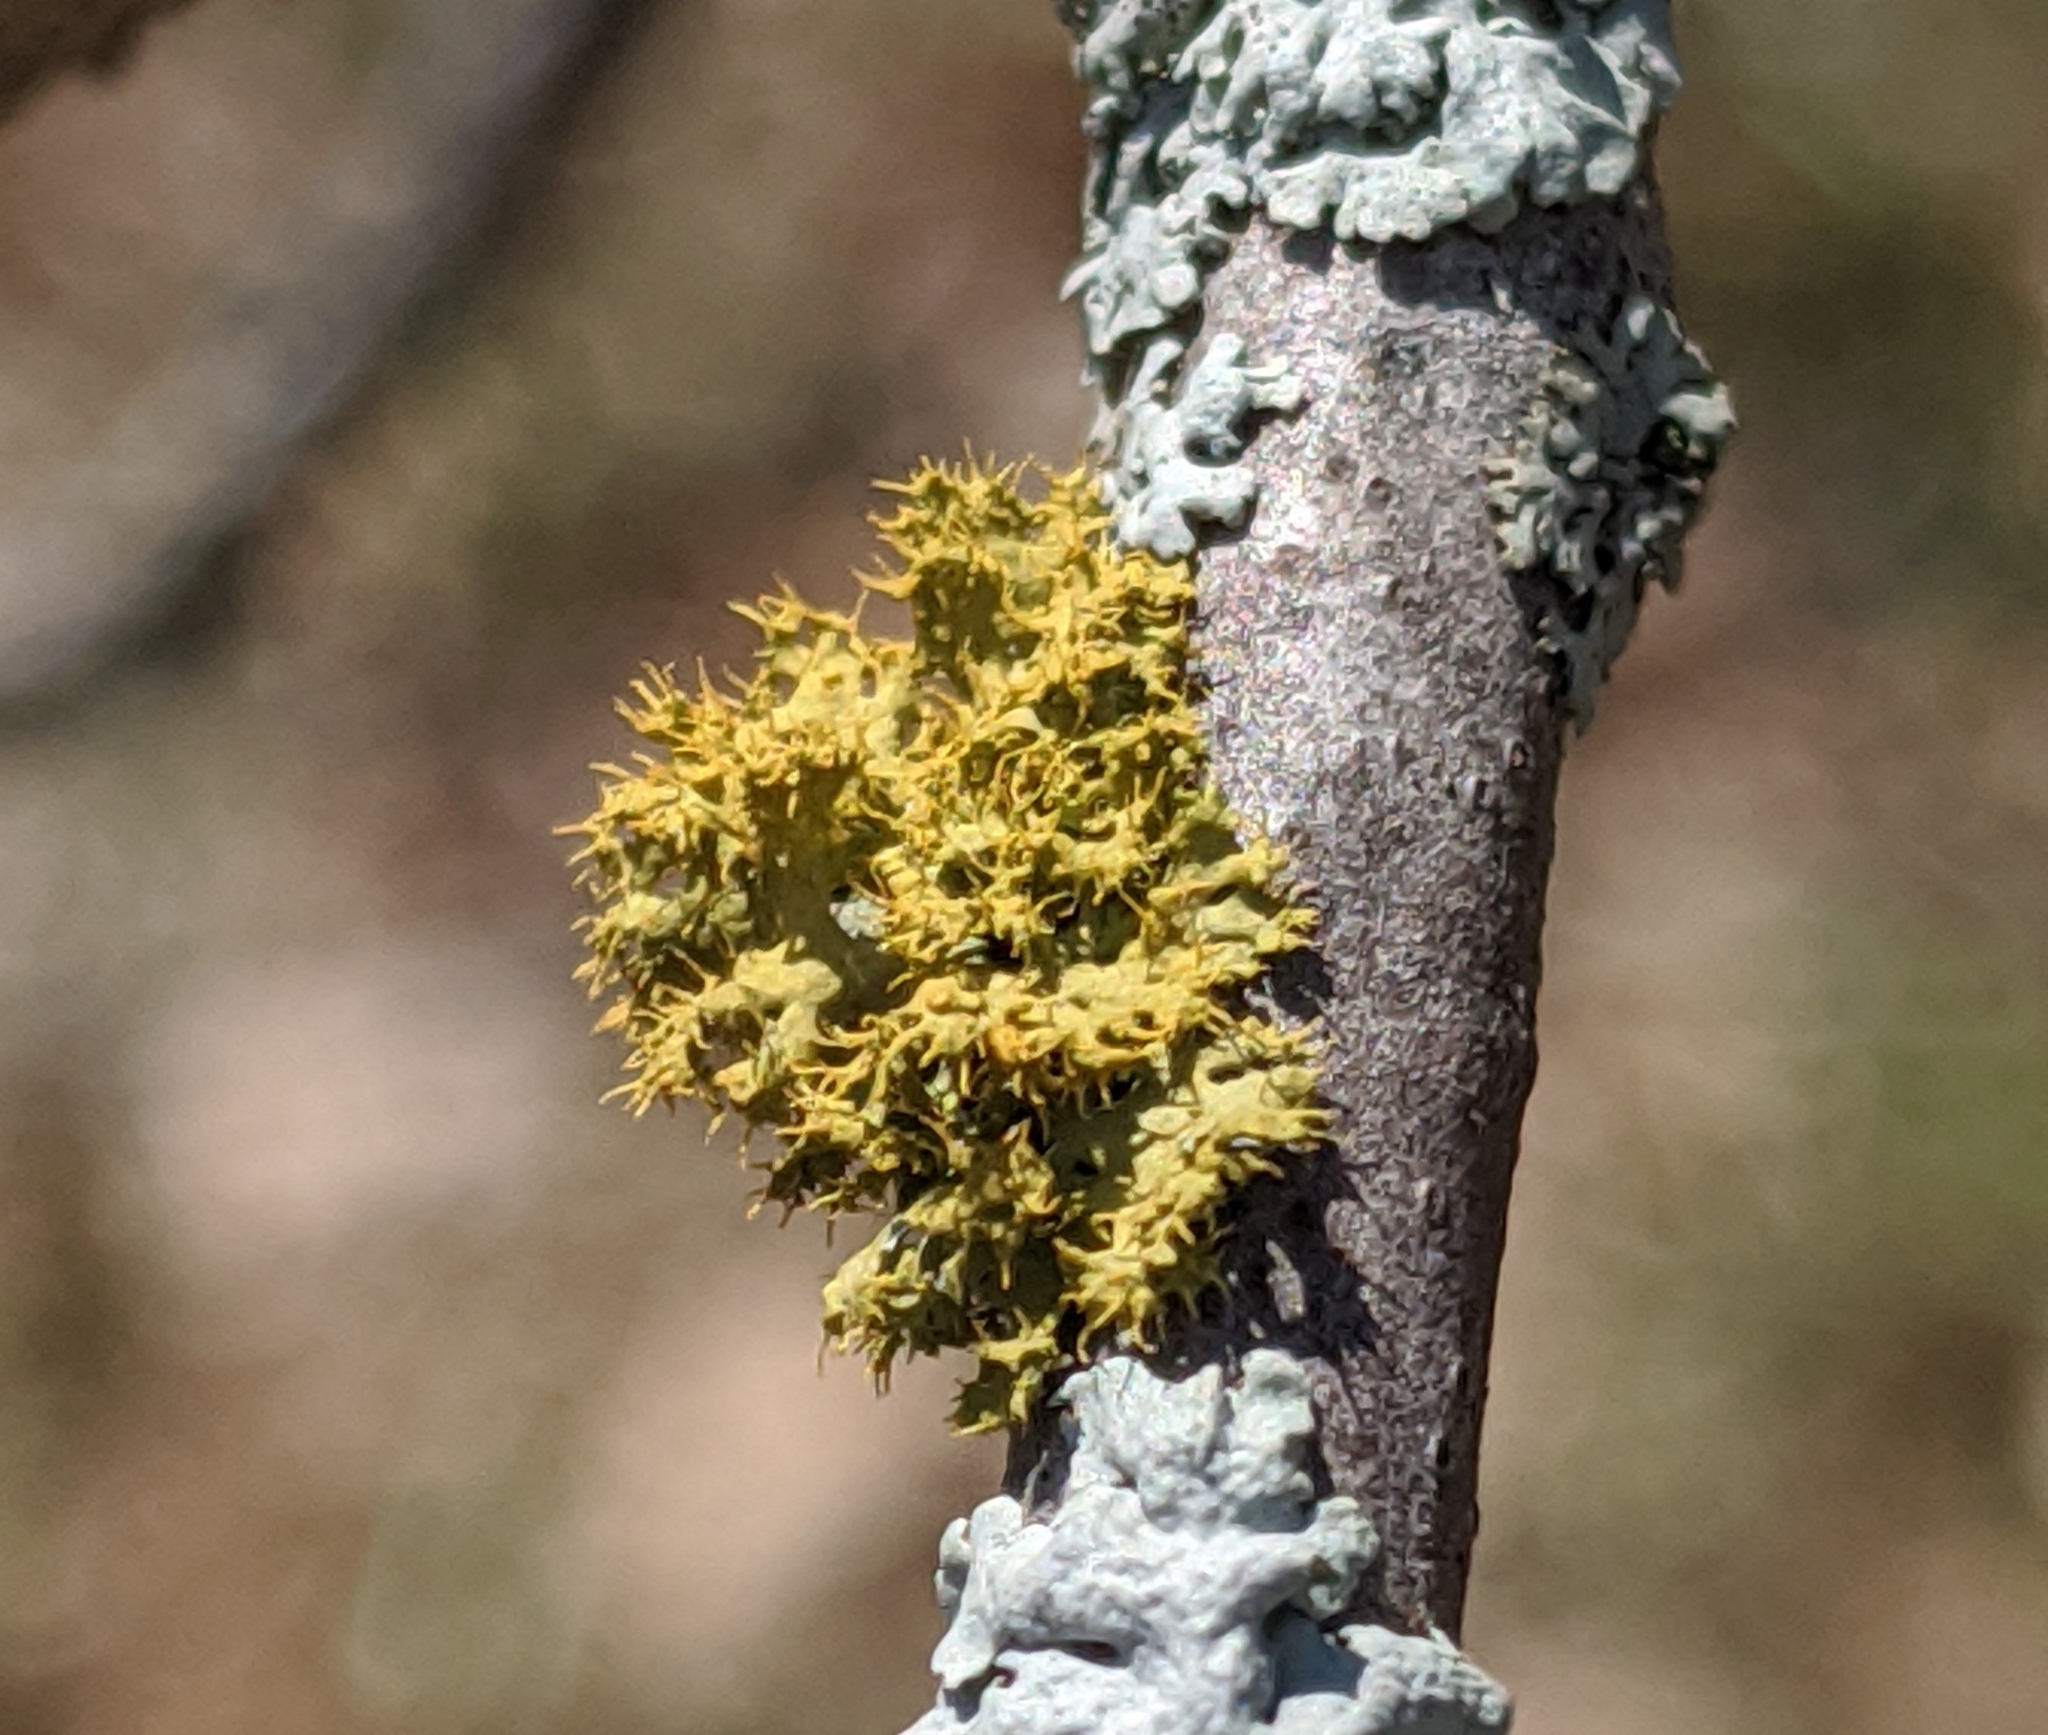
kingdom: Fungi
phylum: Ascomycota
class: Lecanoromycetes
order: Teloschistales
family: Teloschistaceae
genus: Niorma
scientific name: Niorma chrysophthalma
